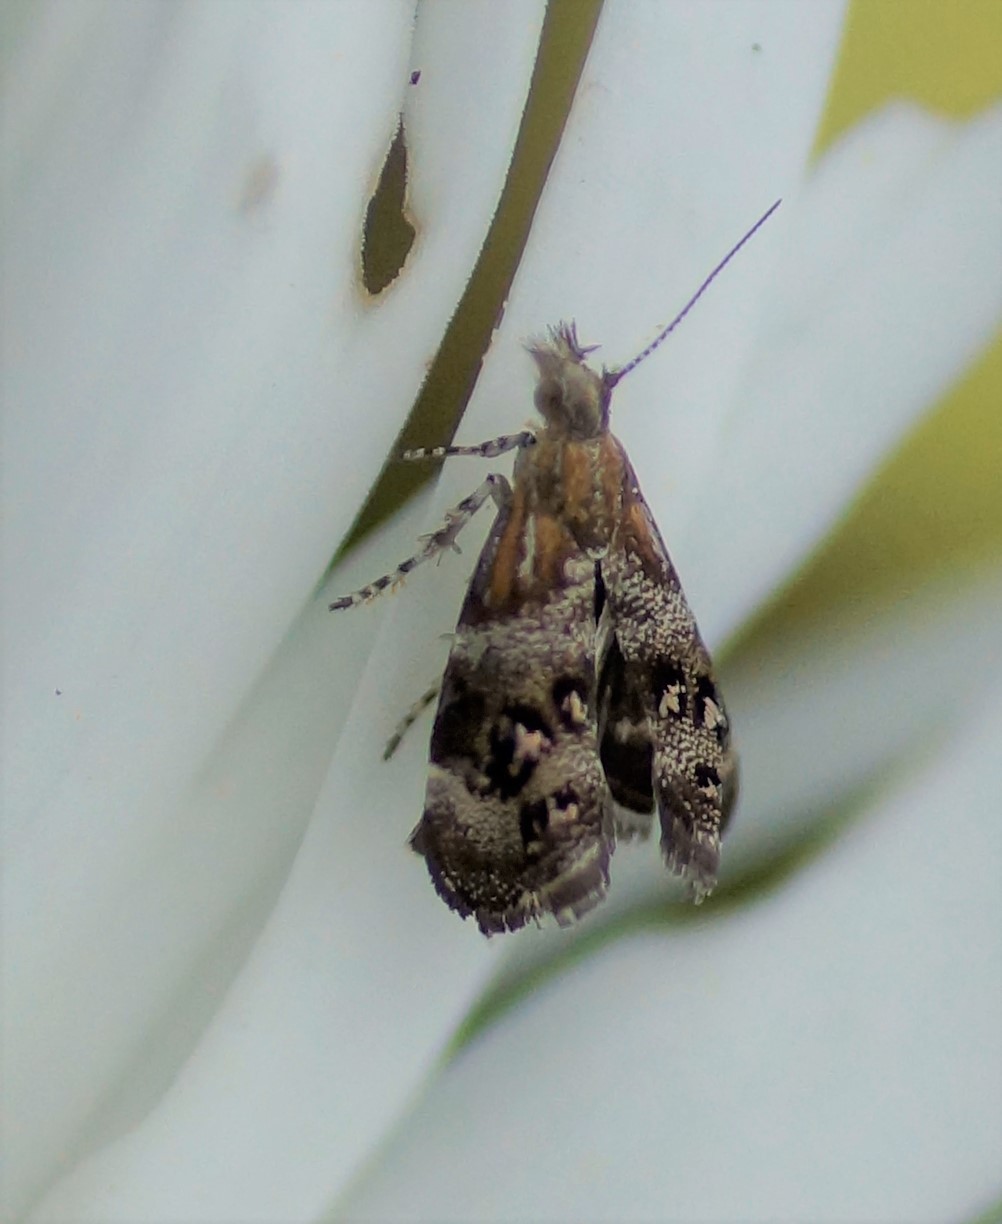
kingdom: Animalia
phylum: Arthropoda
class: Insecta
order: Lepidoptera
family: Choreutidae
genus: Tebenna
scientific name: Tebenna micalis
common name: Vagrant twitcher
